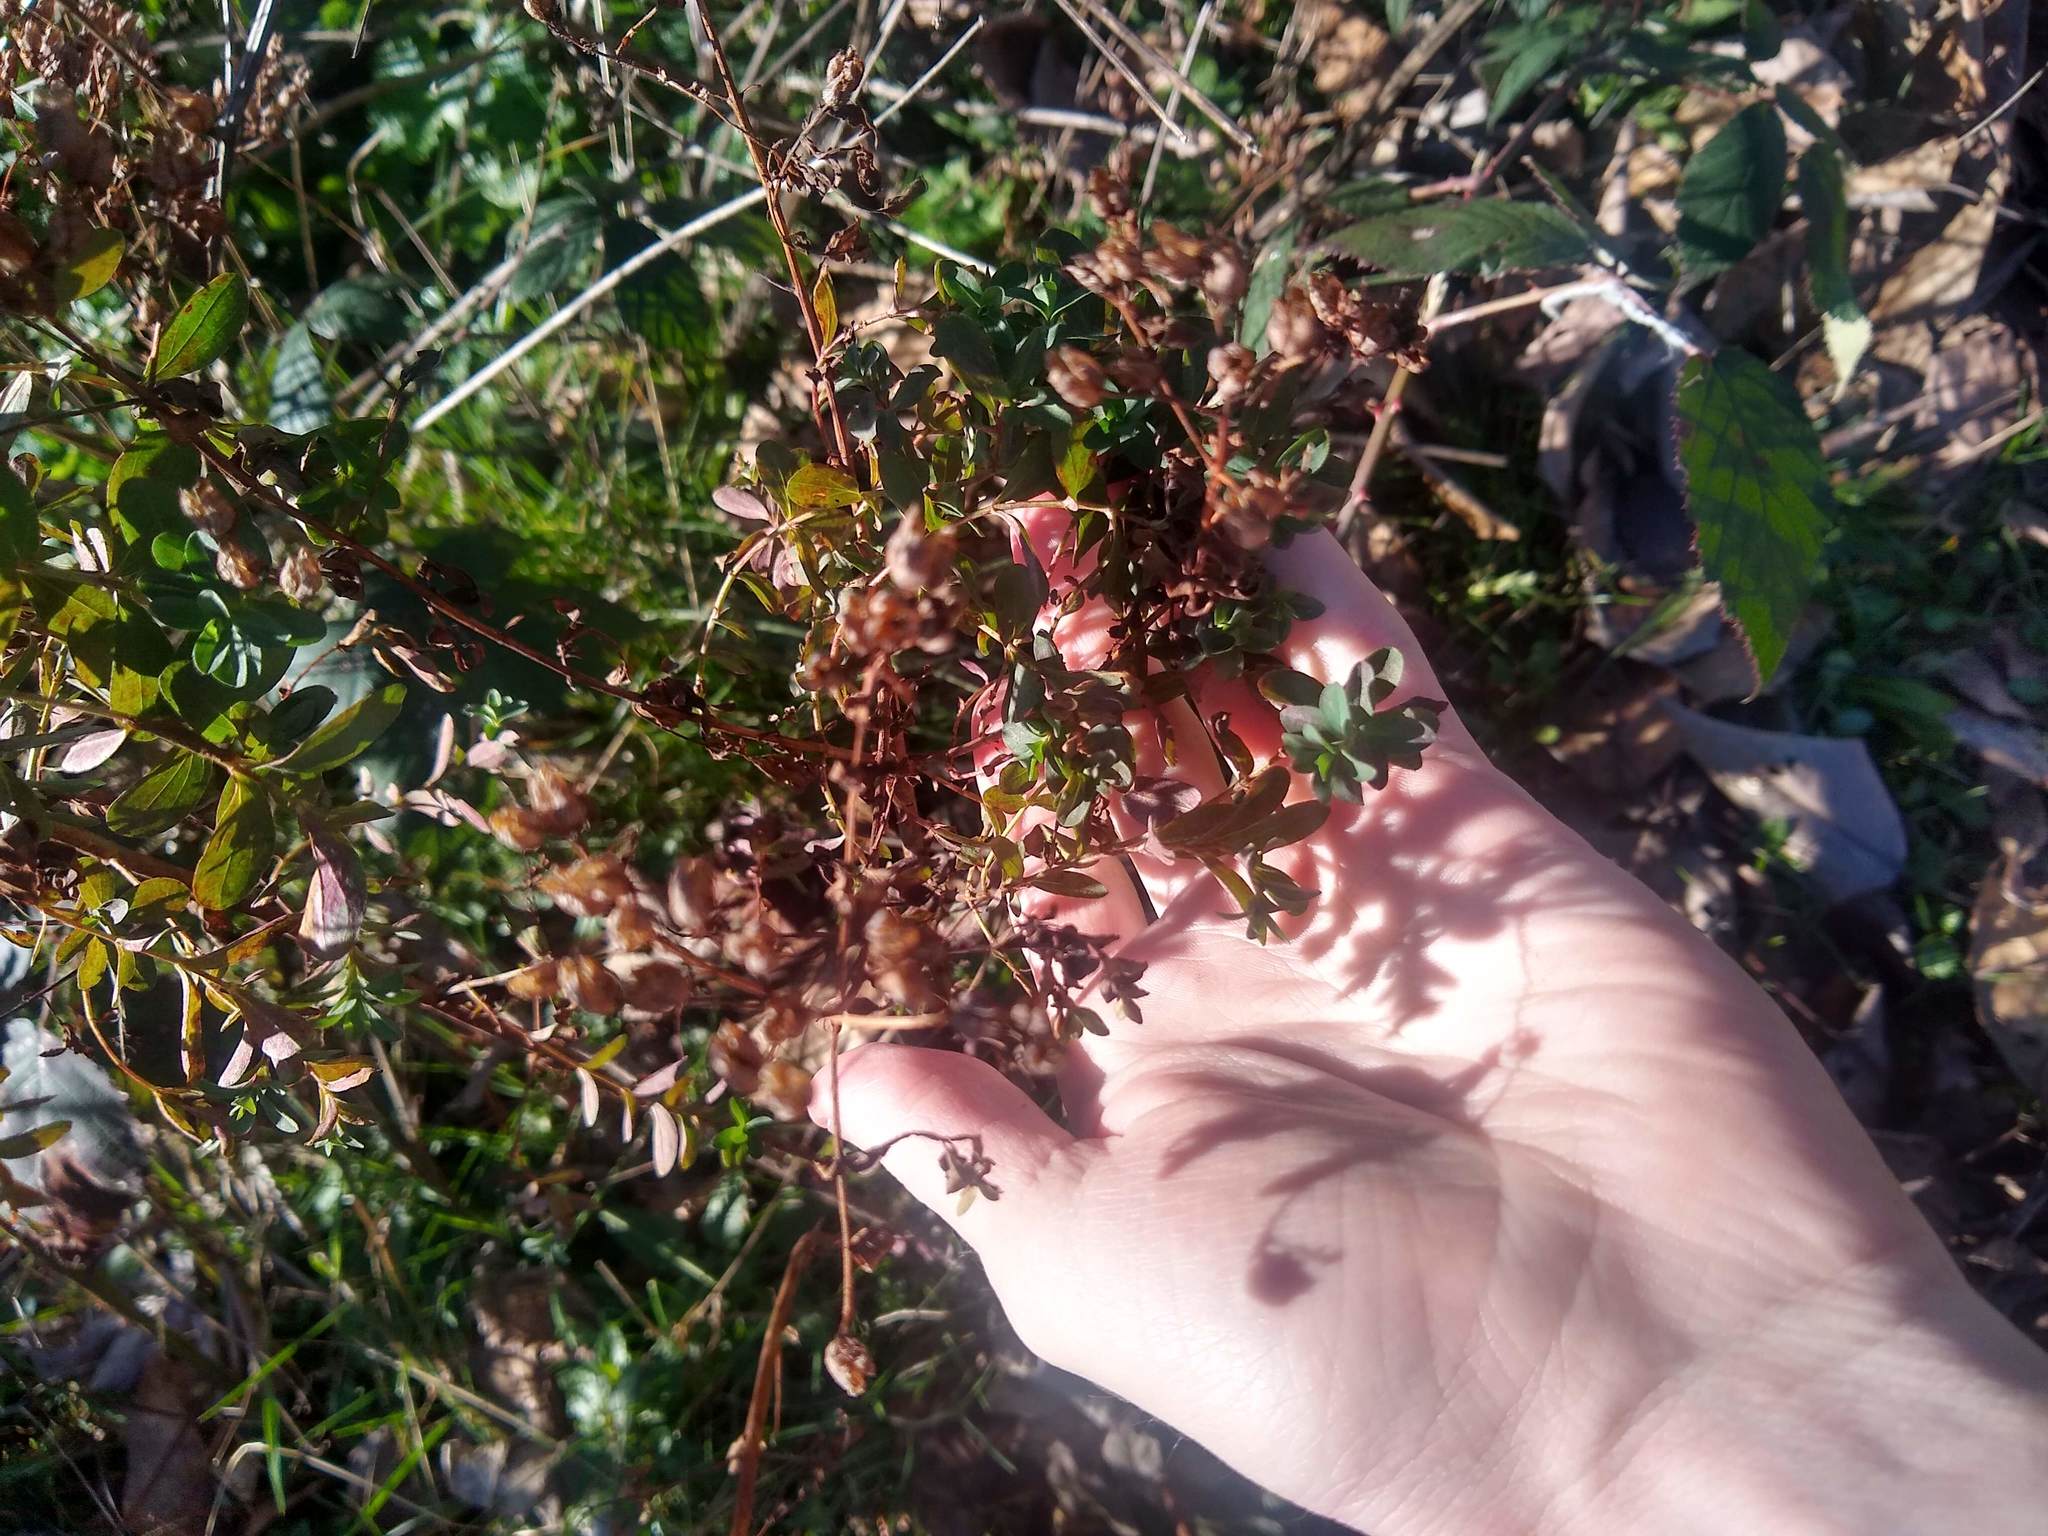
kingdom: Plantae
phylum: Tracheophyta
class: Magnoliopsida
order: Malpighiales
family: Hypericaceae
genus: Hypericum
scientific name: Hypericum perforatum
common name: Common st. johnswort
